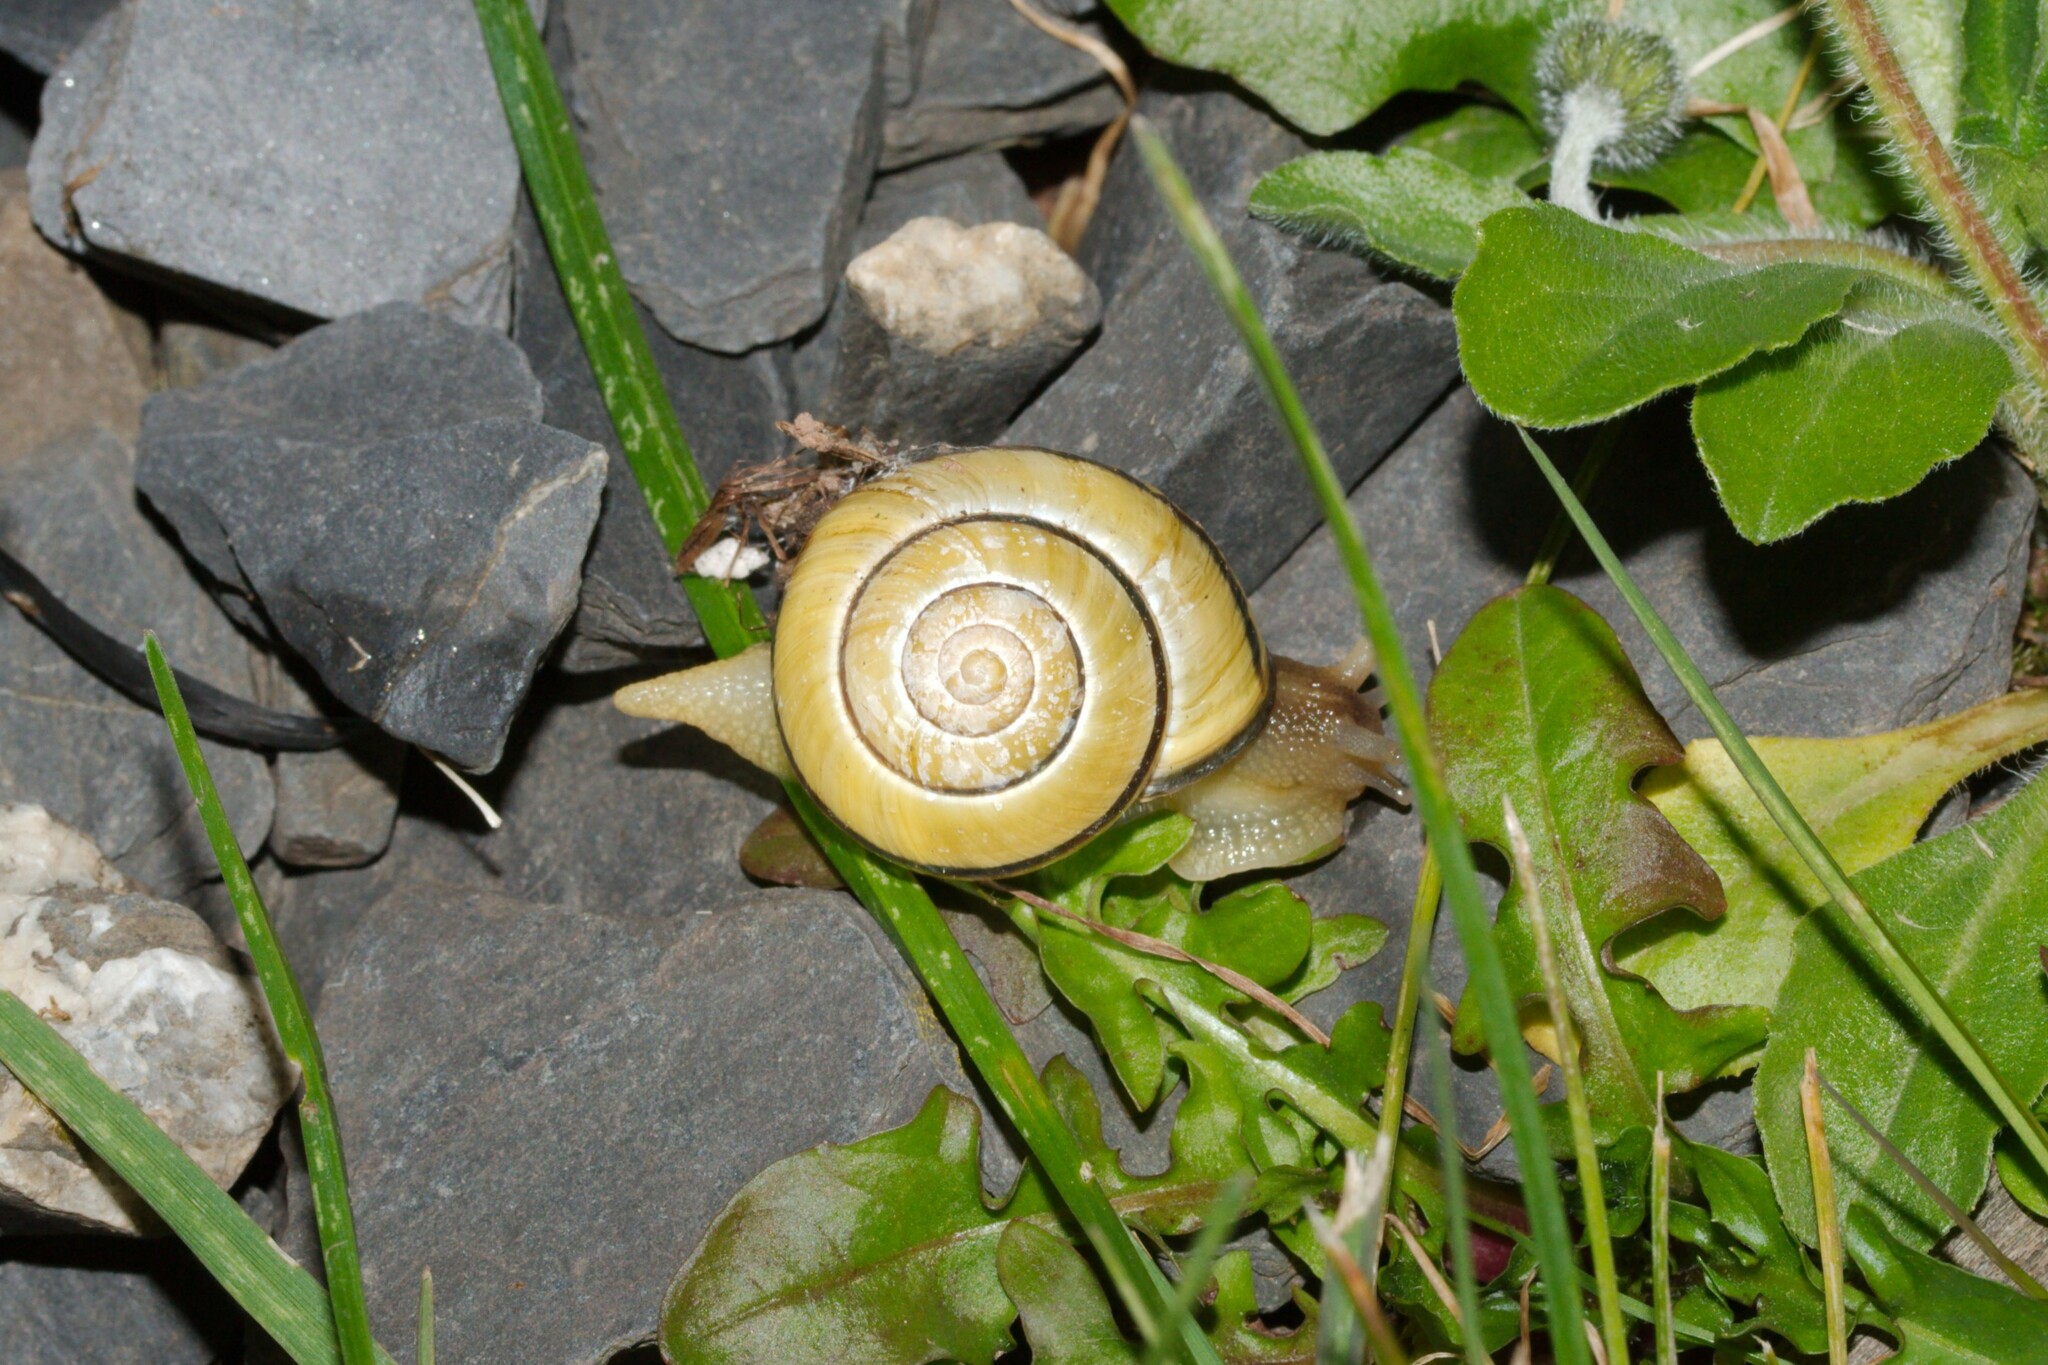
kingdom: Animalia
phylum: Mollusca
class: Gastropoda
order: Stylommatophora
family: Helicidae
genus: Cepaea
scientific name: Cepaea nemoralis
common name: Grovesnail
